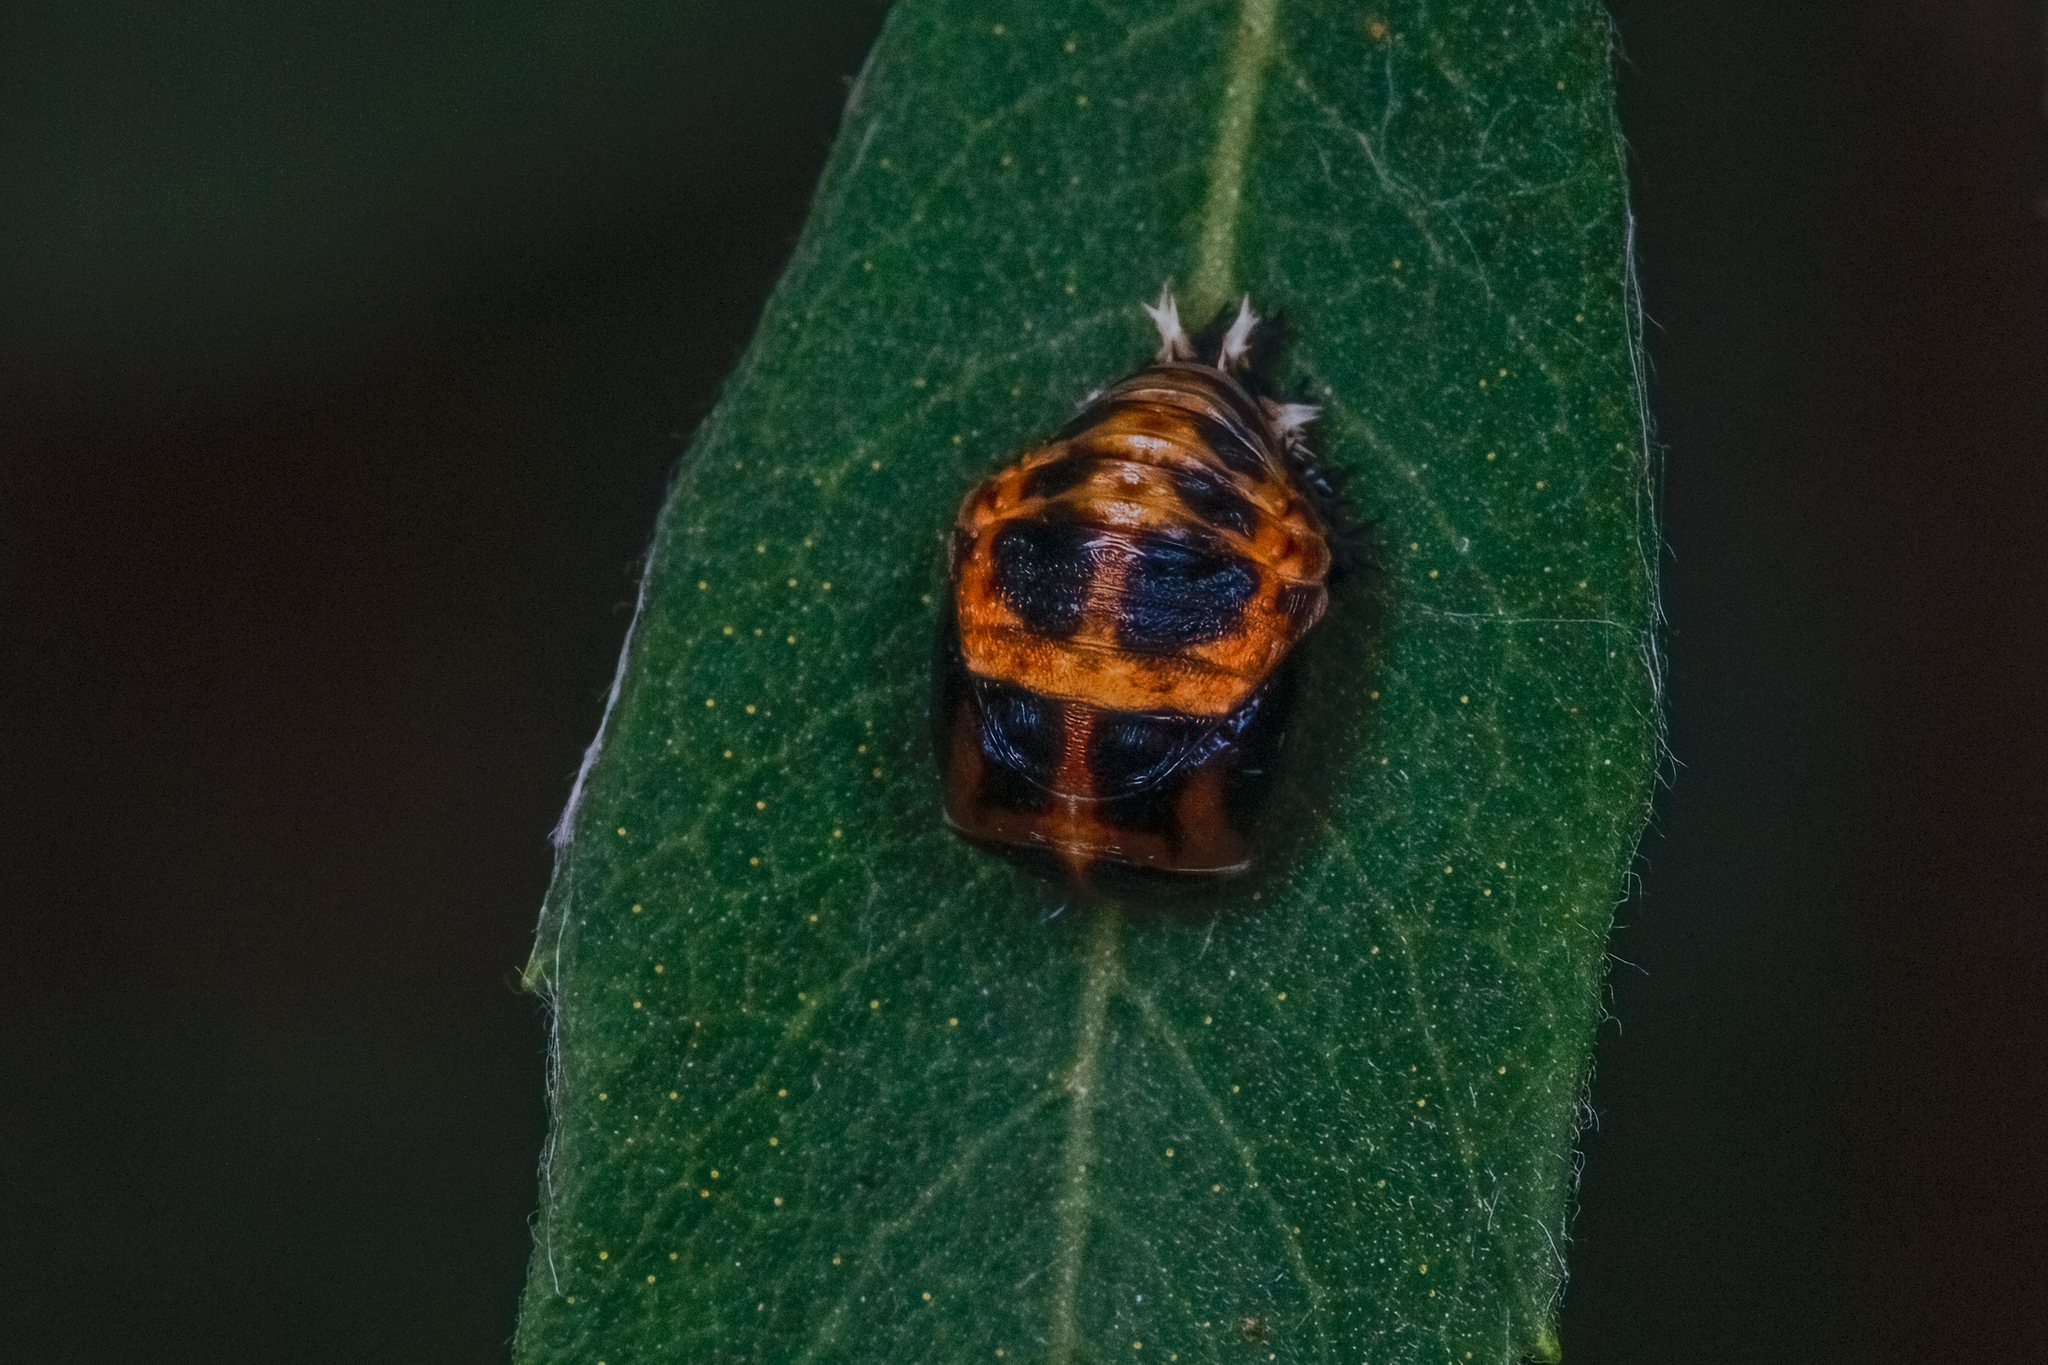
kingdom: Animalia
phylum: Arthropoda
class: Insecta
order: Coleoptera
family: Coccinellidae
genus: Harmonia
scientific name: Harmonia axyridis
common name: Harlequin ladybird
